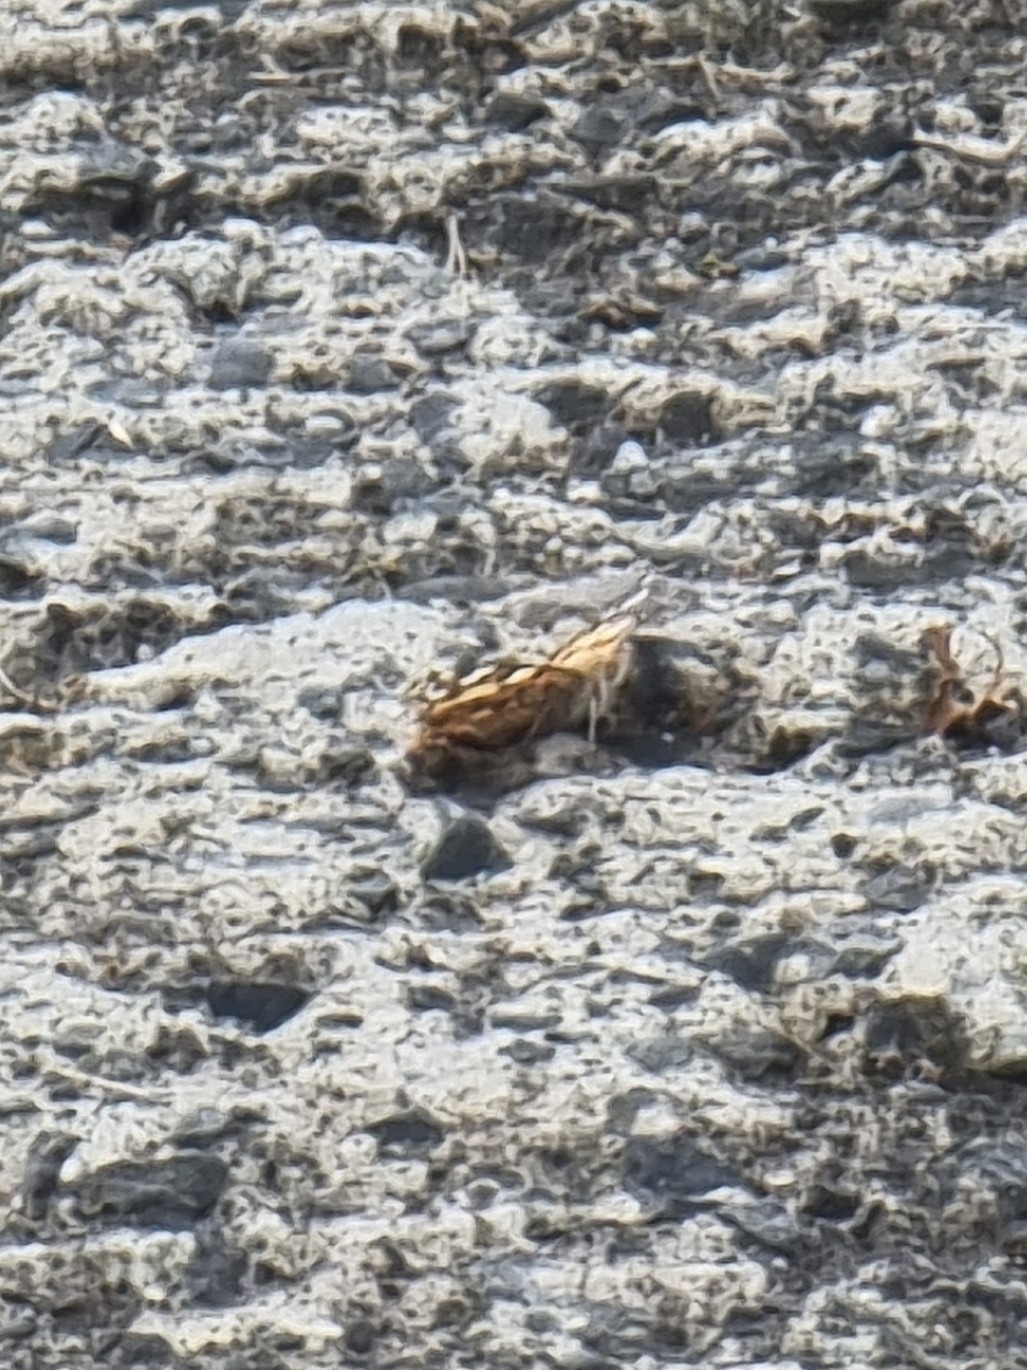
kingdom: Animalia
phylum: Arthropoda
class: Insecta
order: Lepidoptera
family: Nymphalidae
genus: Vanessa
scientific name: Vanessa cardui
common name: Painted lady
